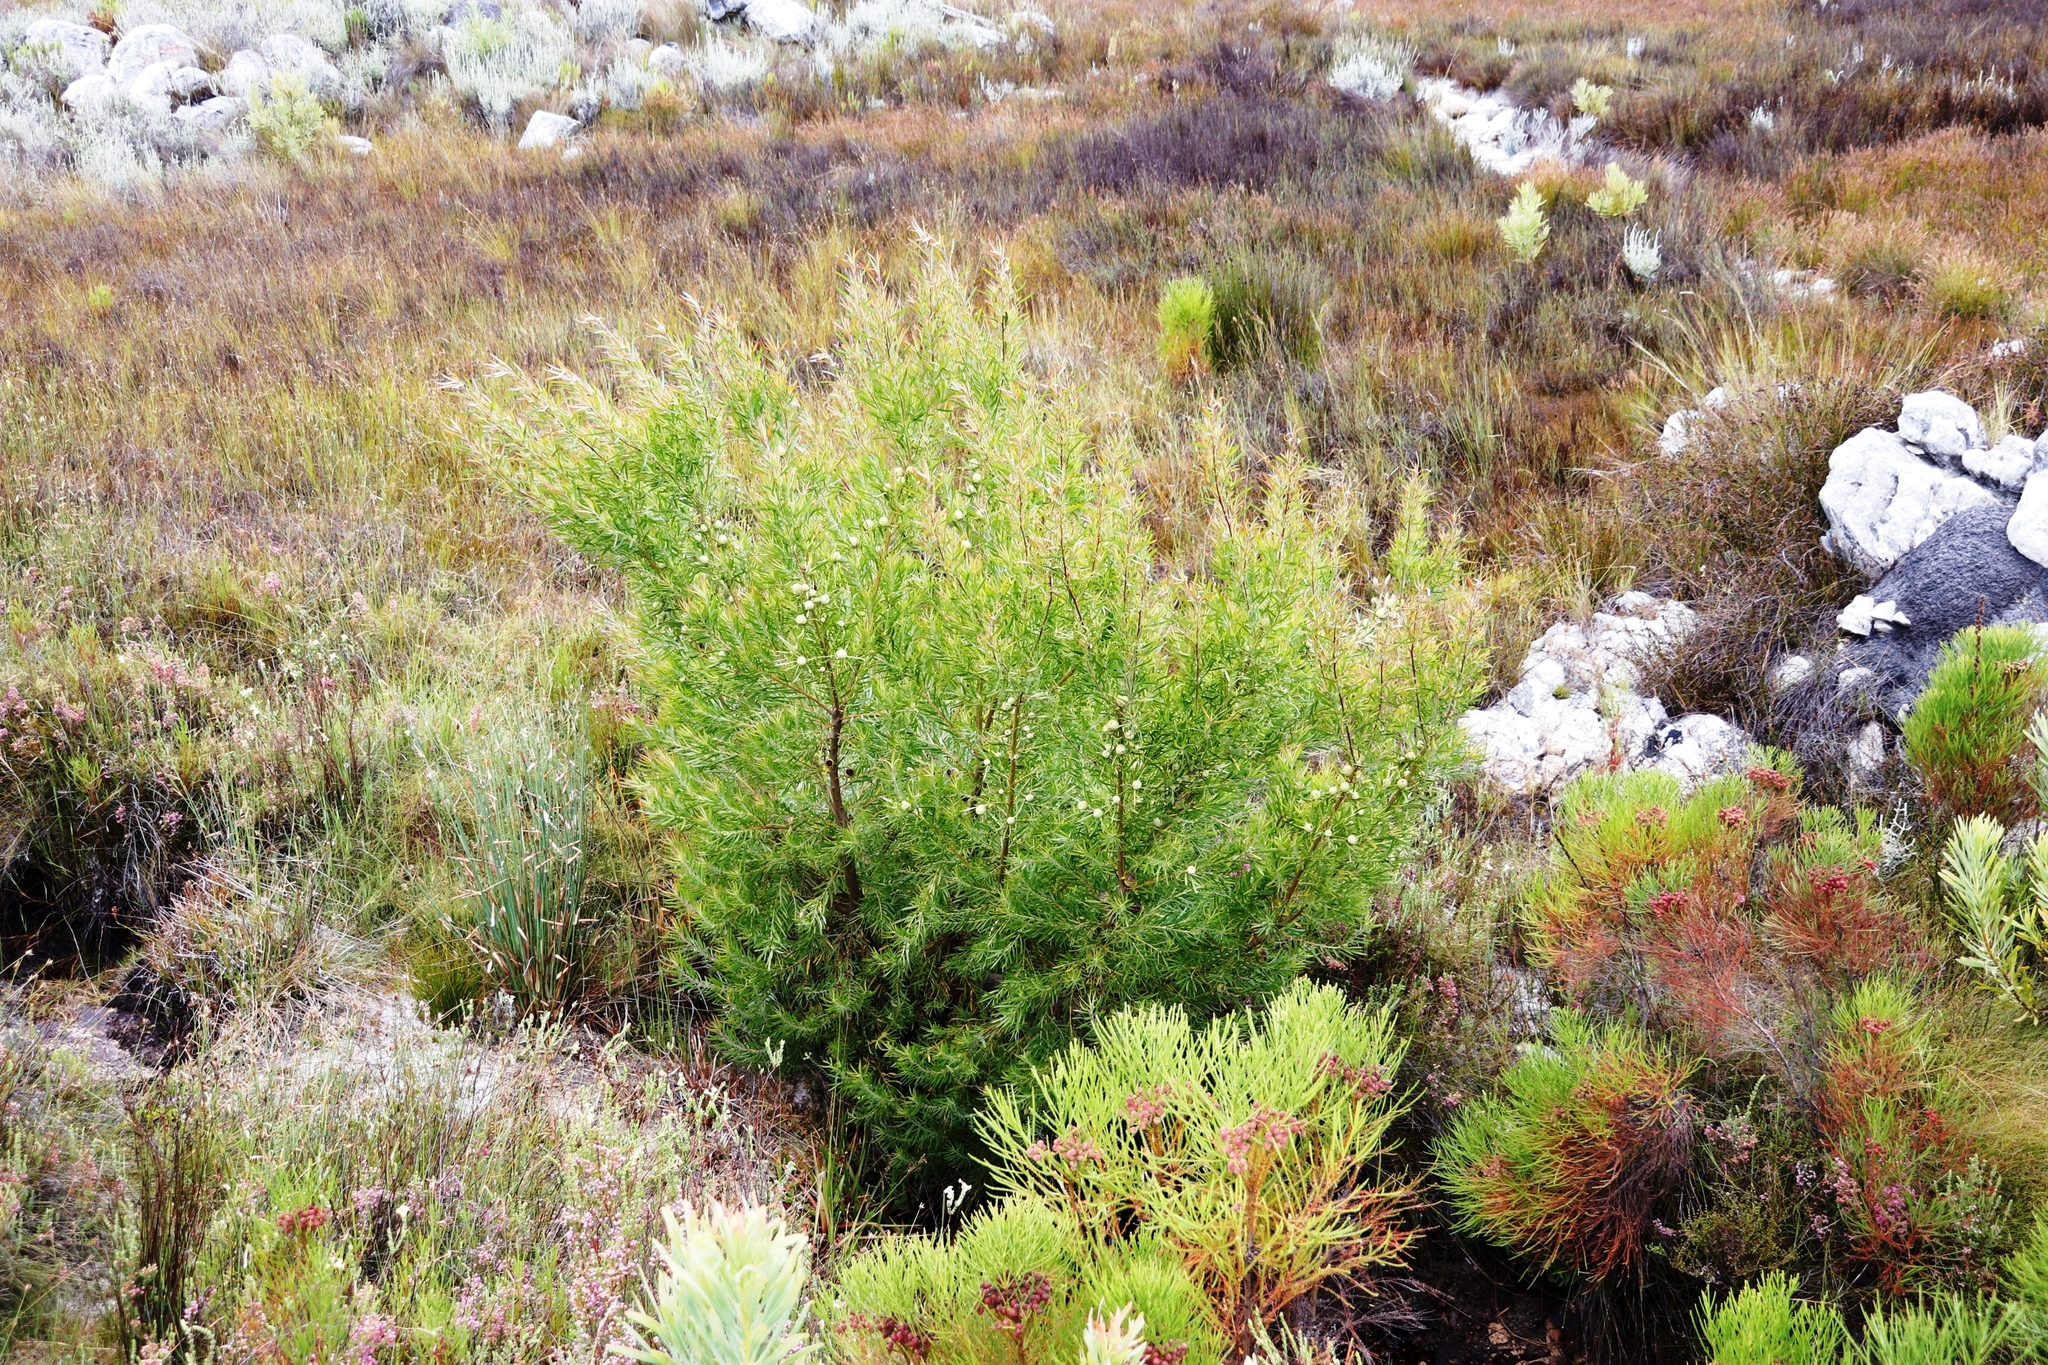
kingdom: Plantae
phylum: Tracheophyta
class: Magnoliopsida
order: Proteales
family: Proteaceae
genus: Leucadendron
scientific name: Leucadendron salicifolium
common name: Common stream conebush
